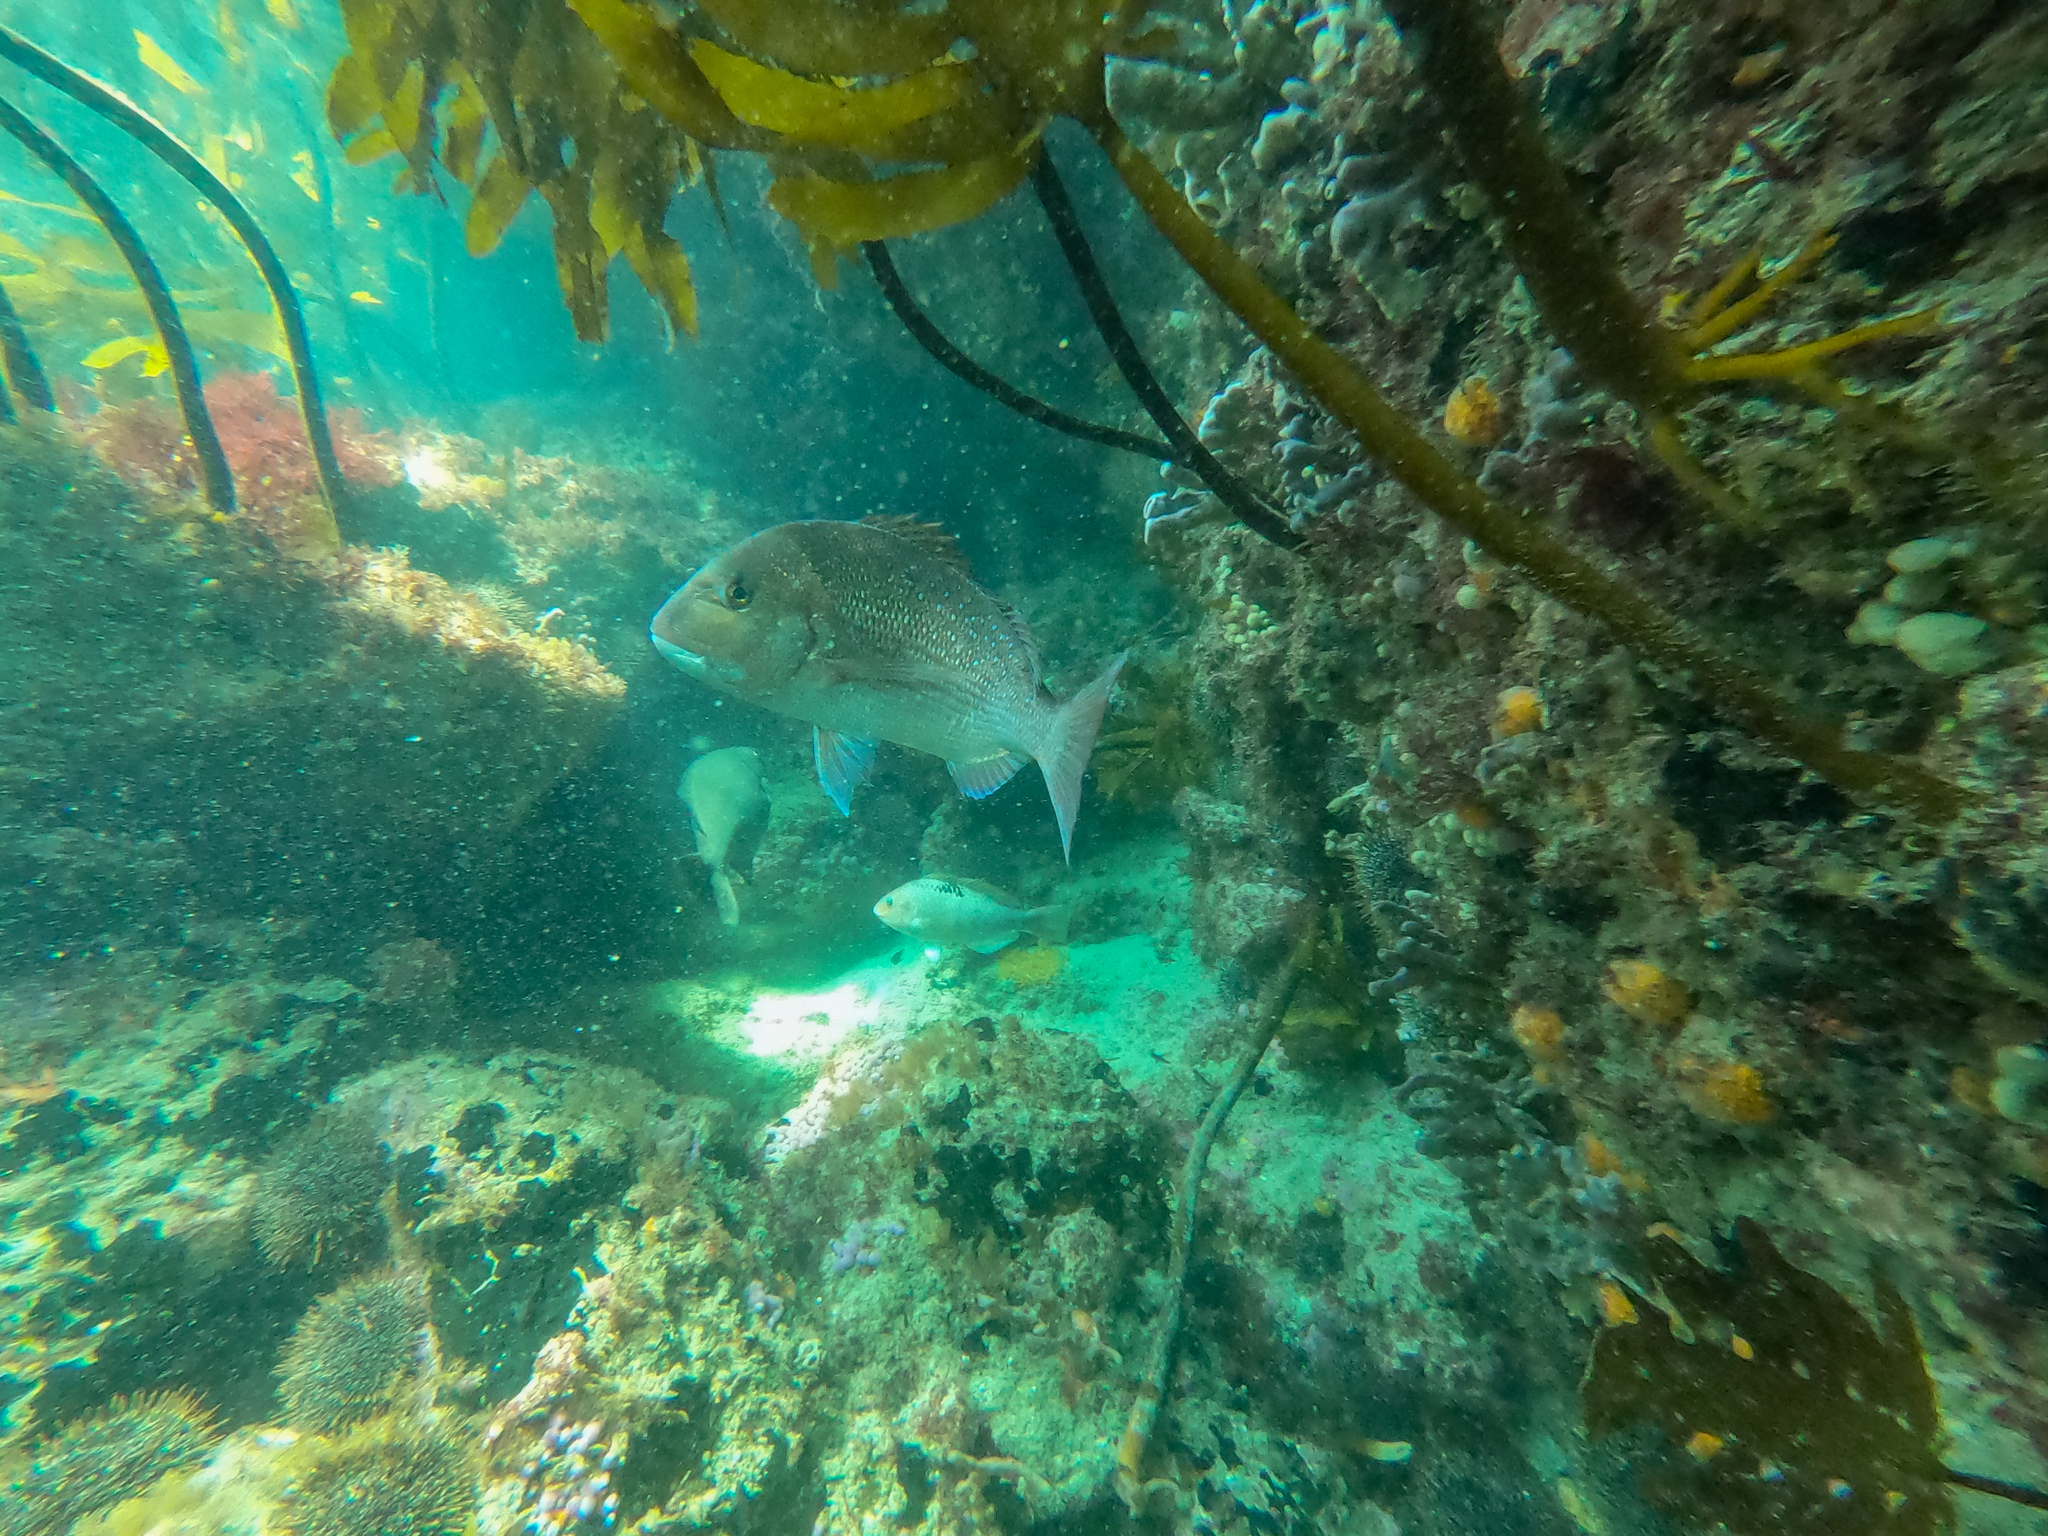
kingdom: Animalia
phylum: Chordata
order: Perciformes
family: Sparidae
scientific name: Sparidae
